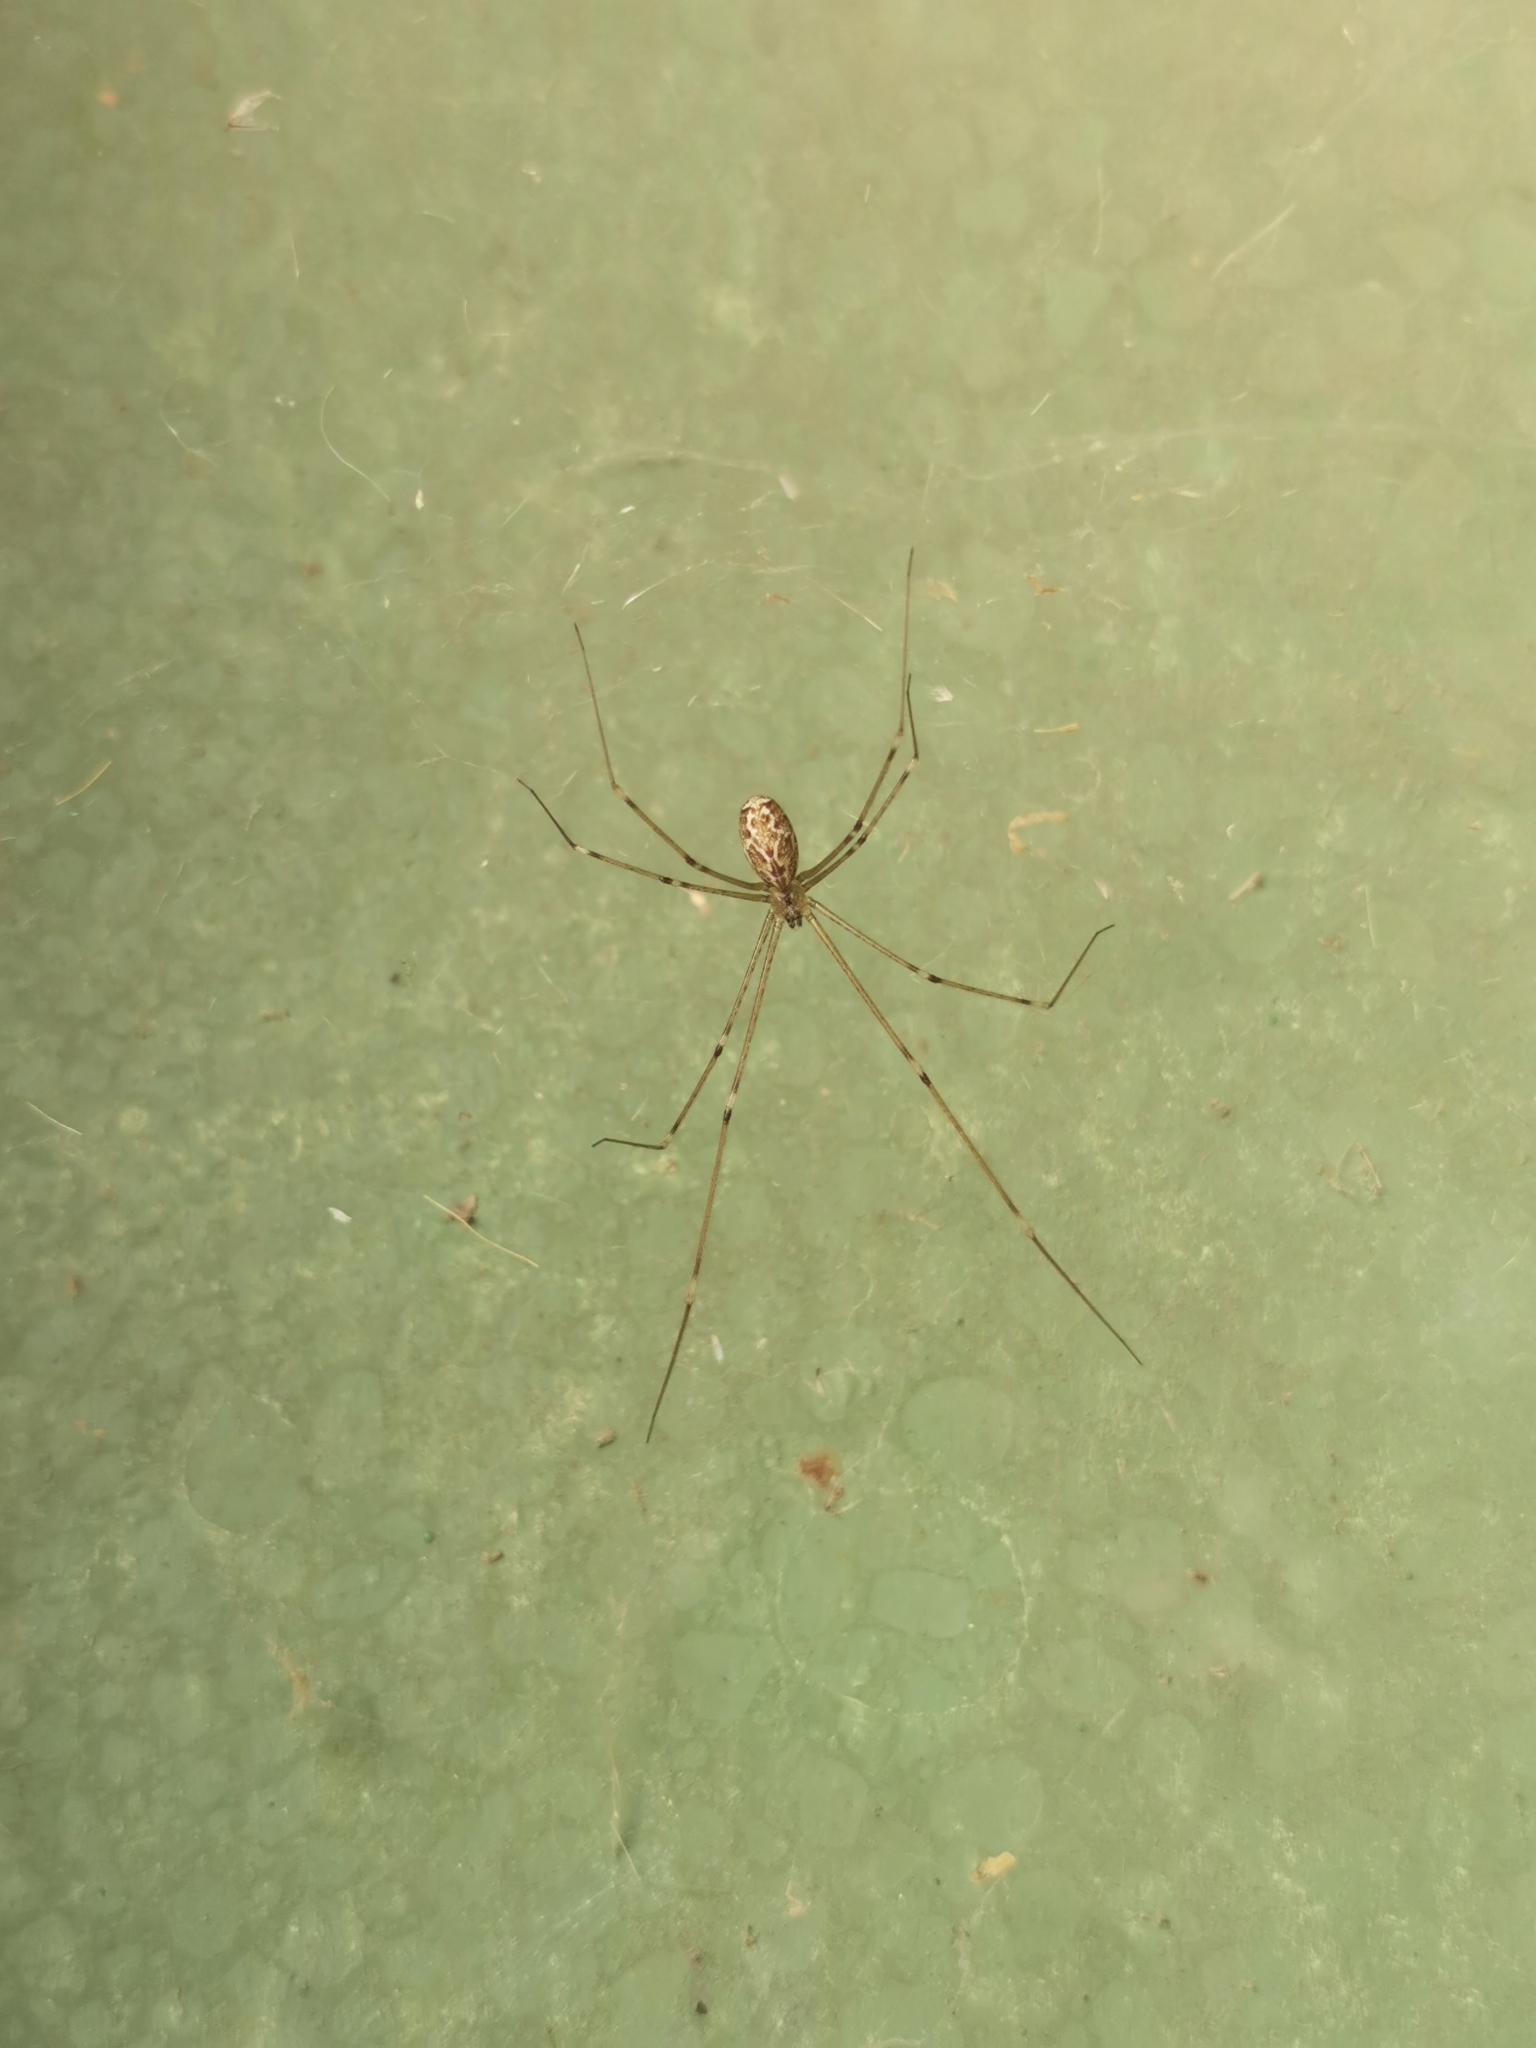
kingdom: Animalia
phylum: Arthropoda
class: Arachnida
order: Araneae
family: Pholcidae
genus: Holocnemus
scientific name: Holocnemus pluchei
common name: Marbled cellar spider
